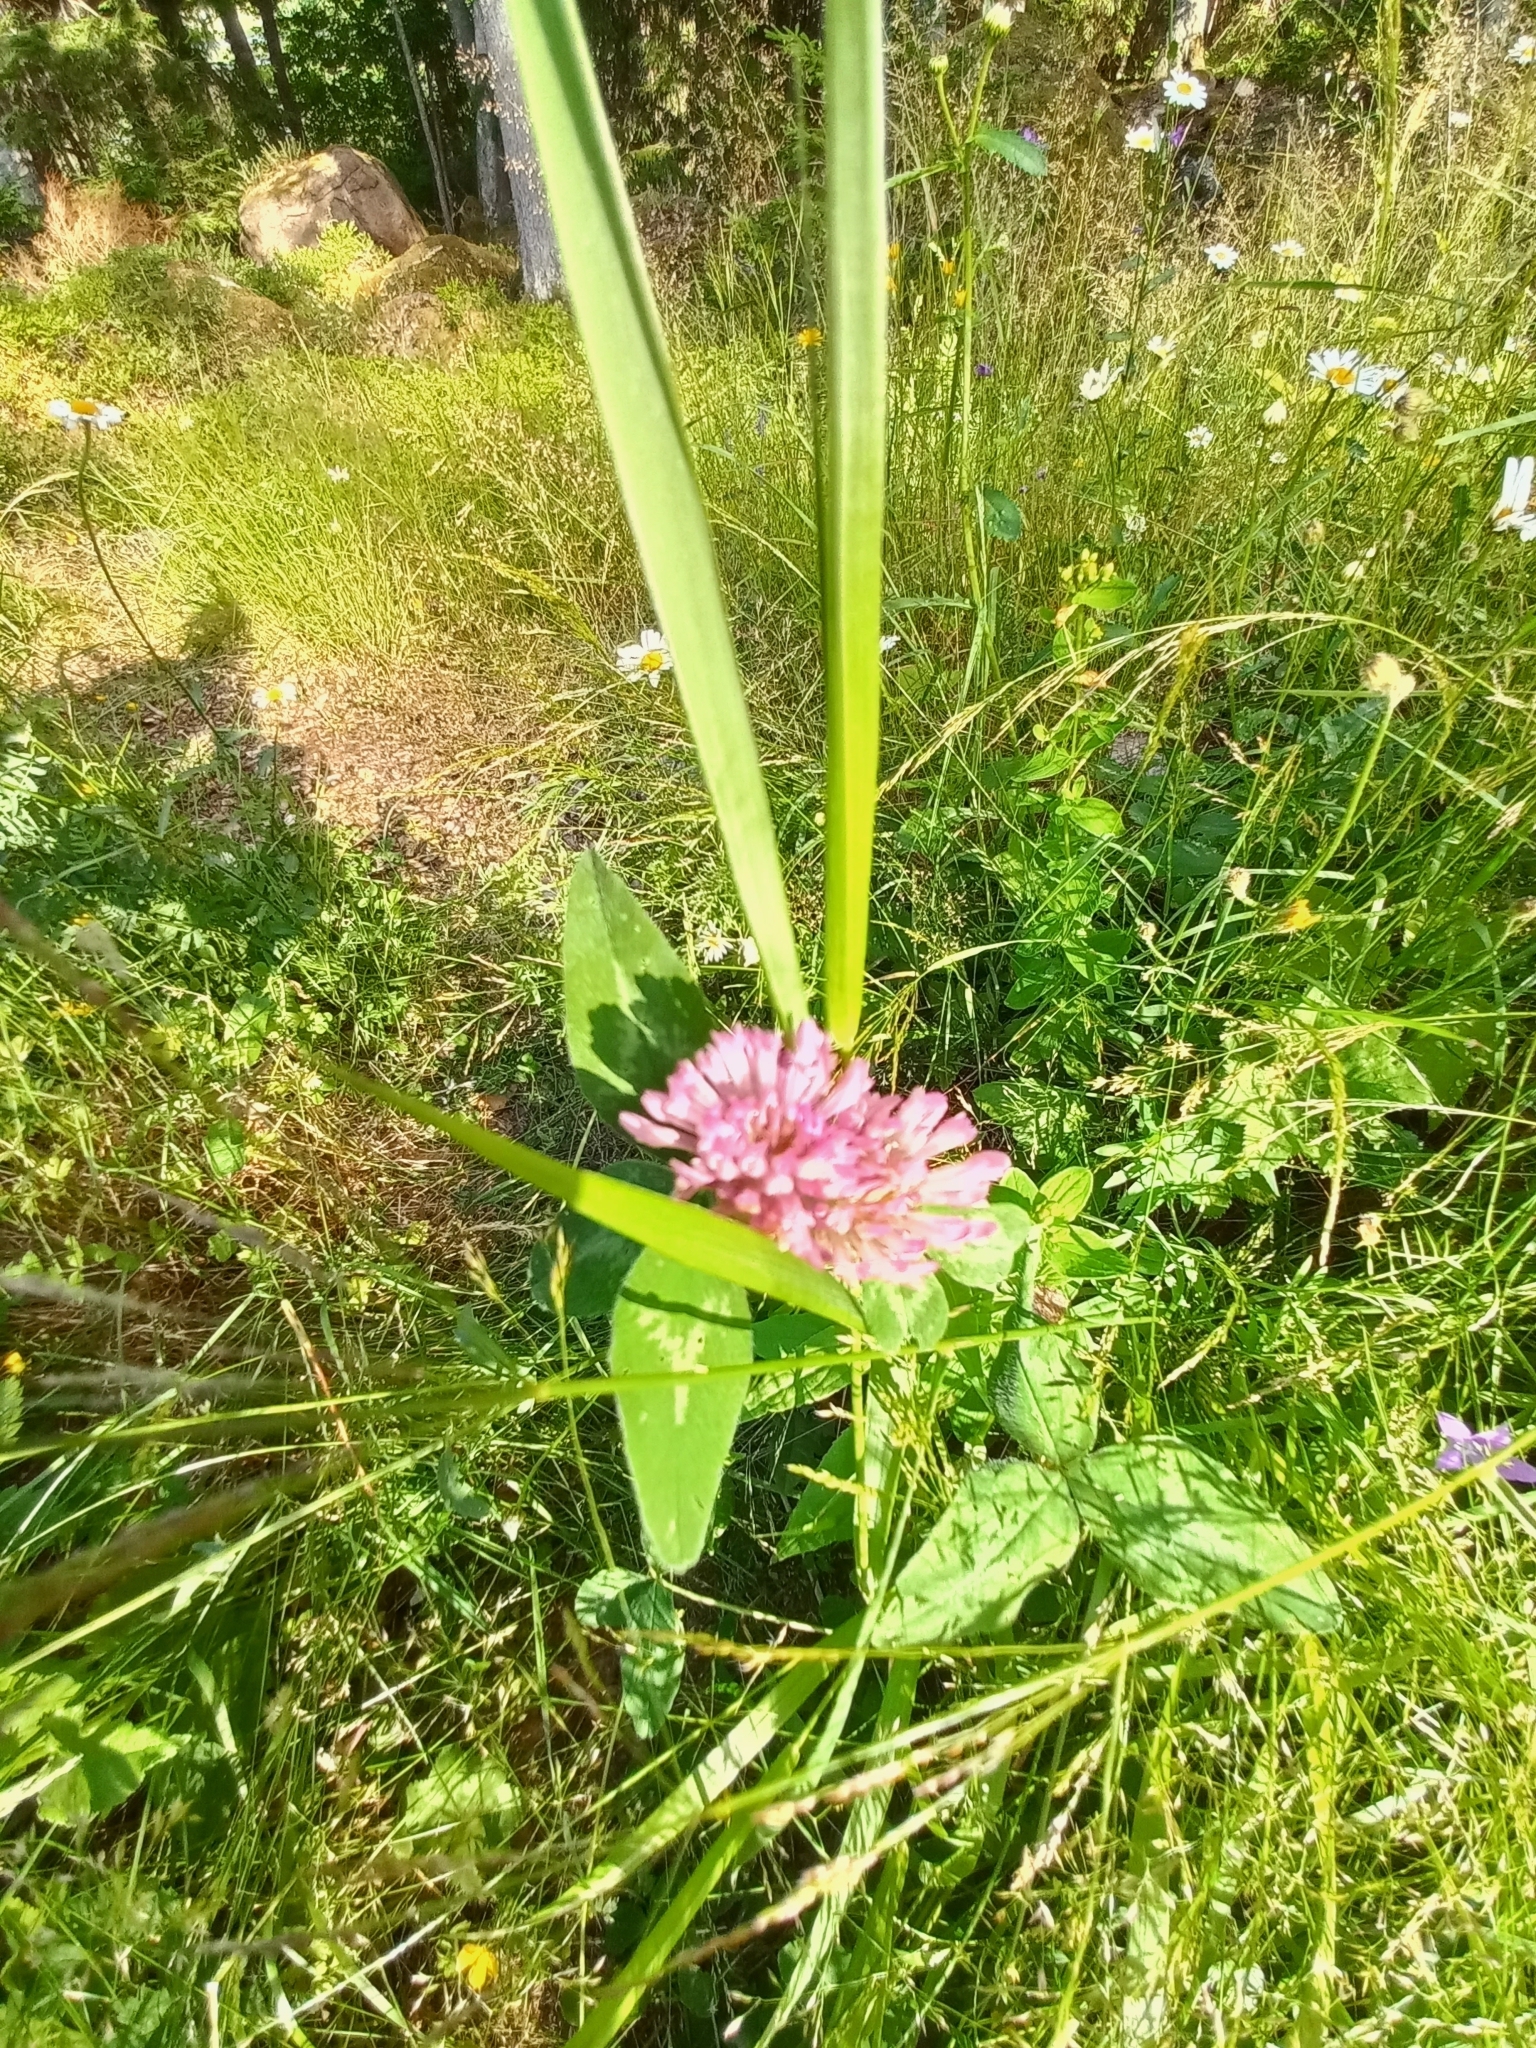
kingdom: Plantae
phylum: Tracheophyta
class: Magnoliopsida
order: Fabales
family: Fabaceae
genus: Trifolium
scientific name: Trifolium pratense
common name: Red clover
